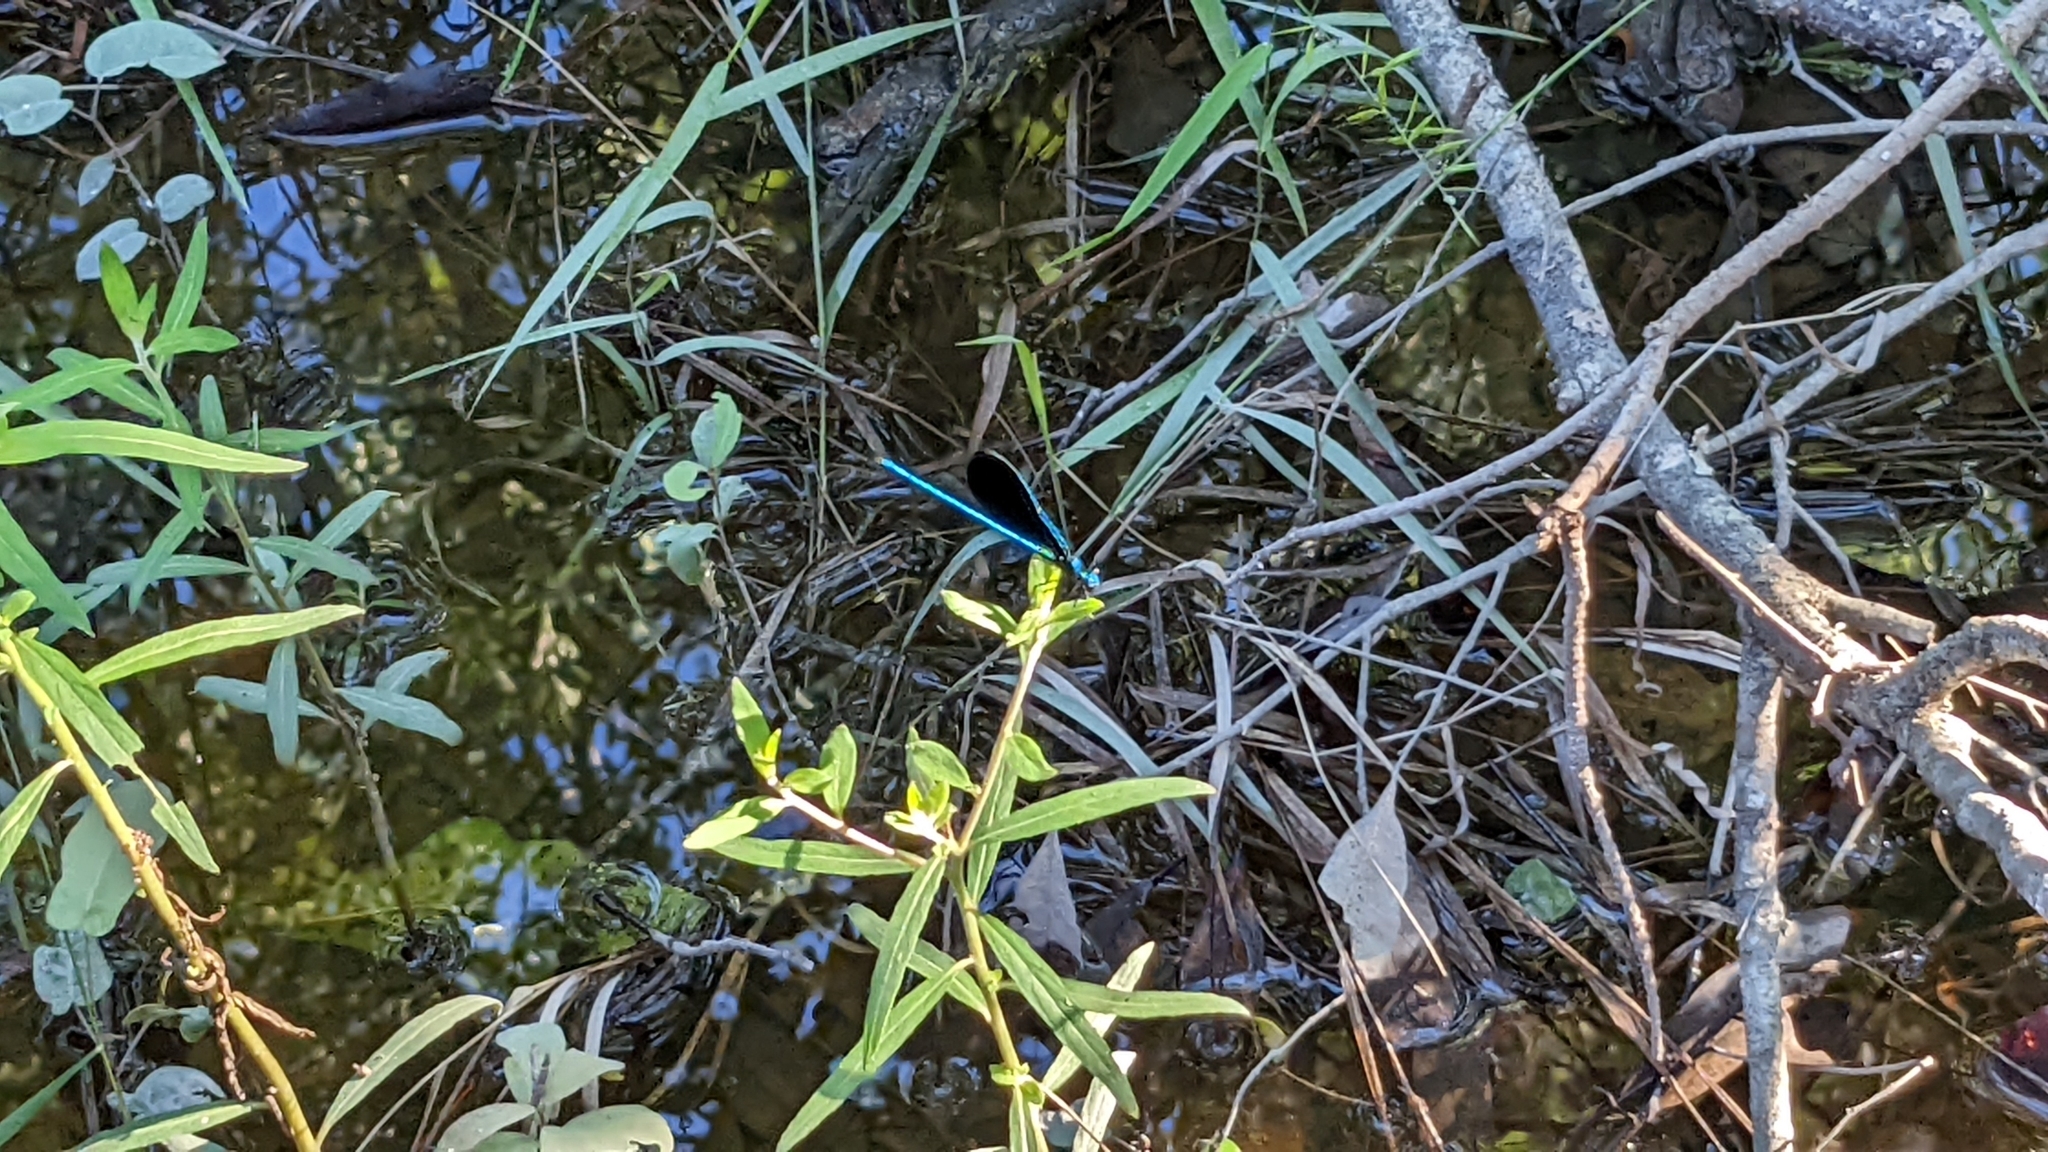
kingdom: Animalia
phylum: Arthropoda
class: Insecta
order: Odonata
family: Calopterygidae
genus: Calopteryx
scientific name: Calopteryx maculata
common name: Ebony jewelwing
